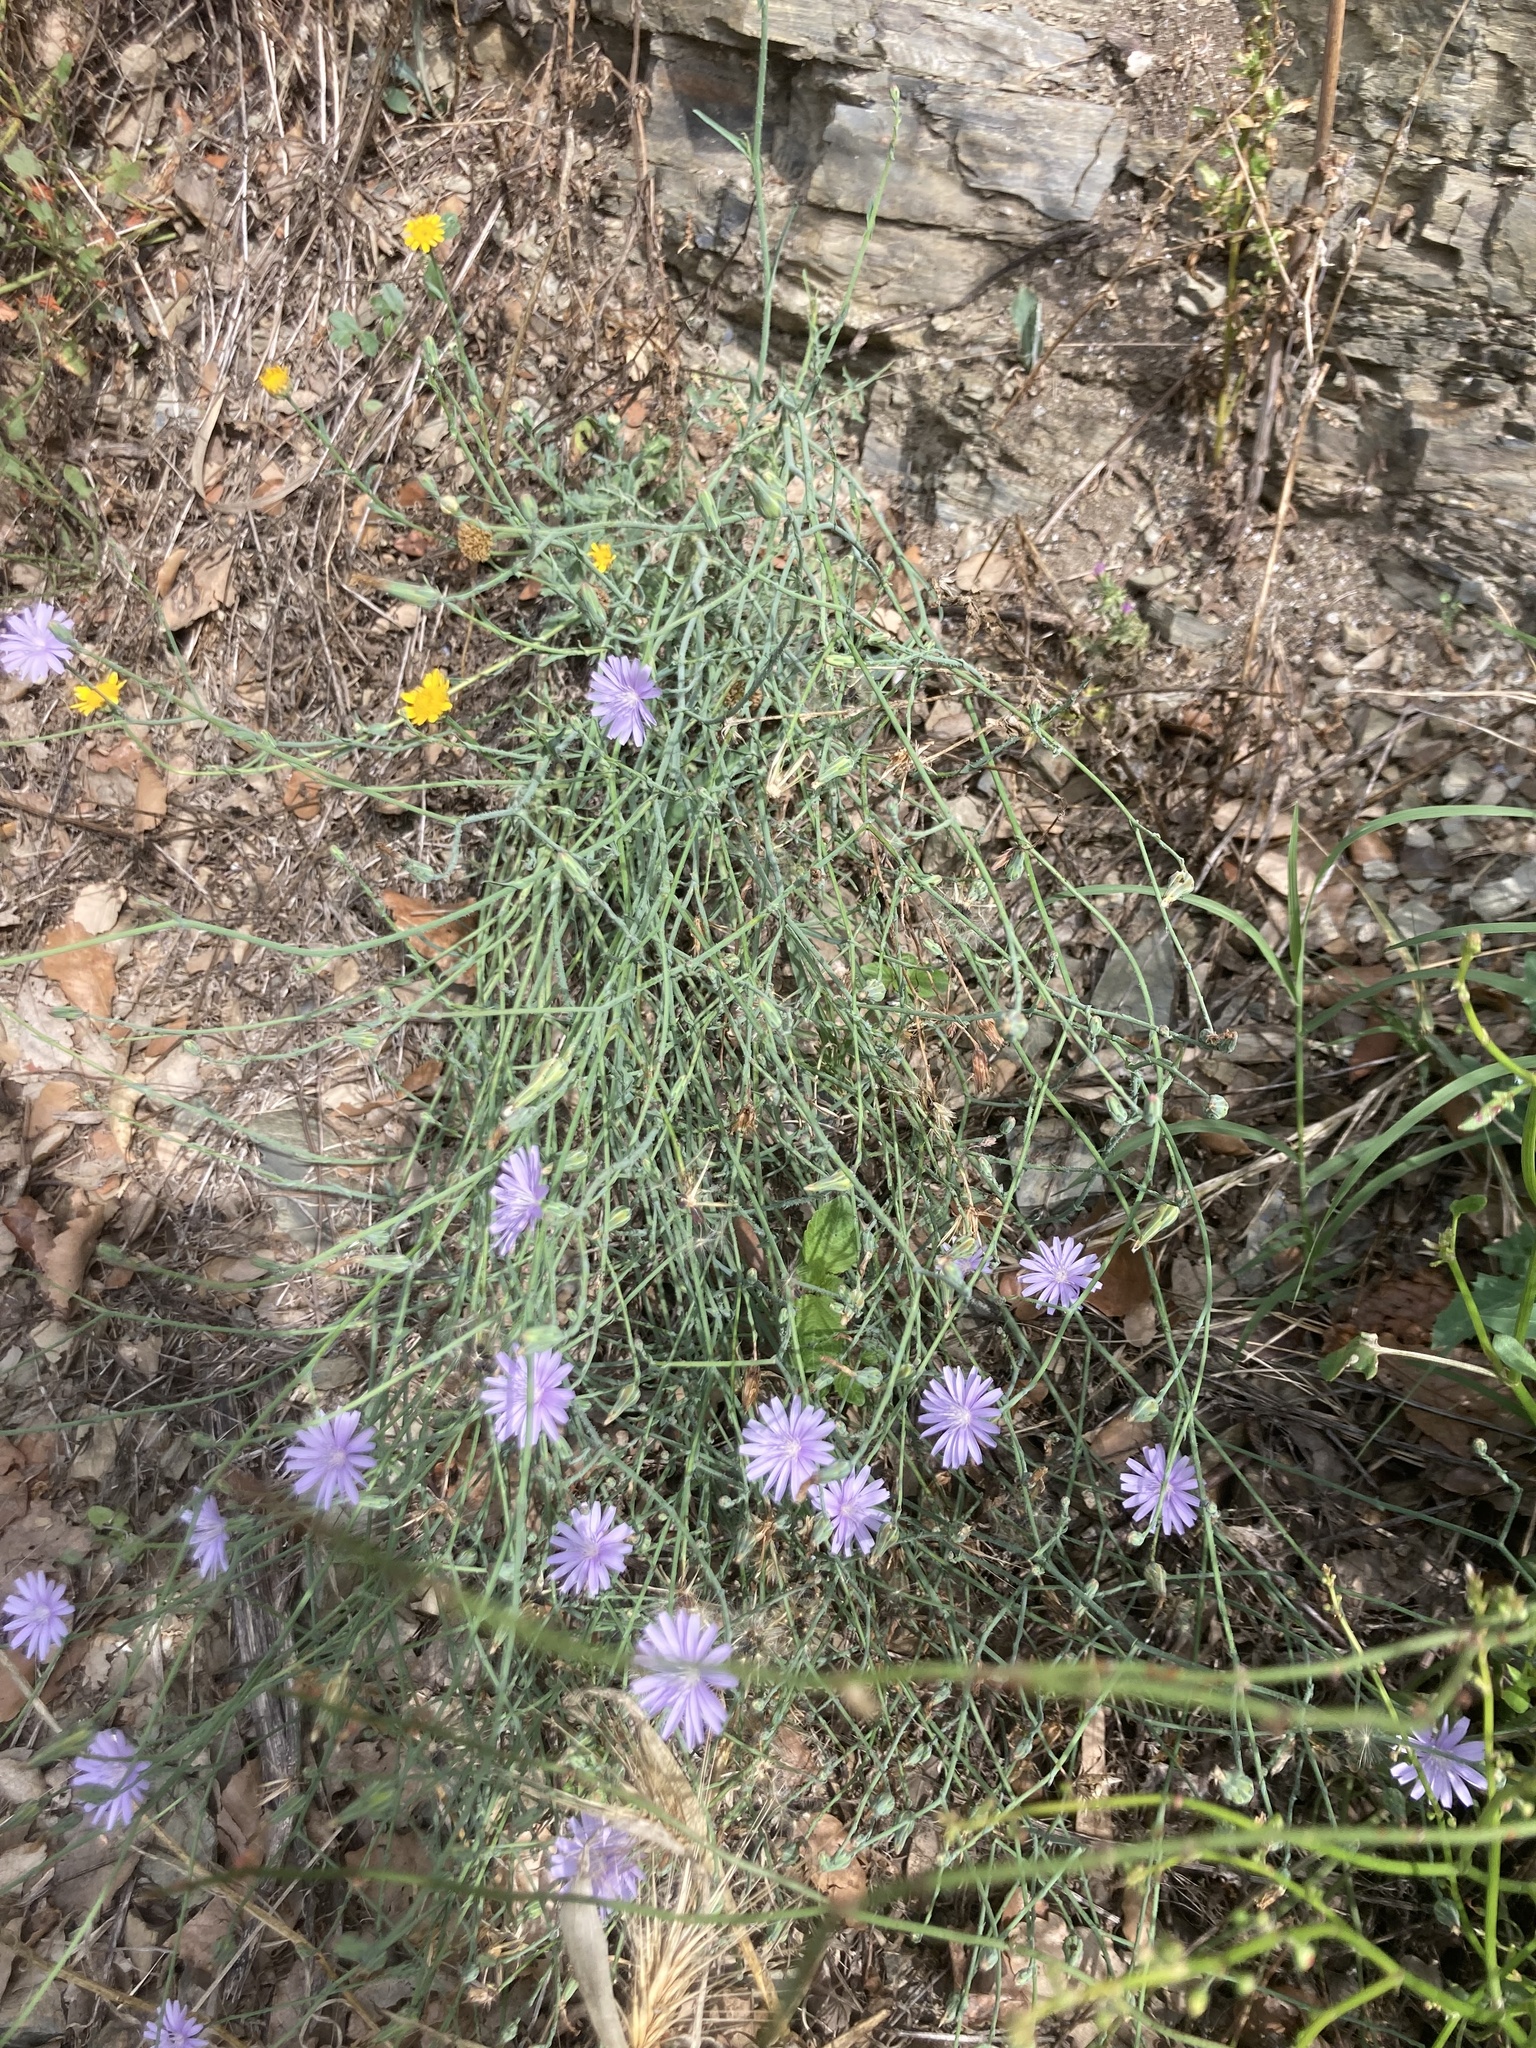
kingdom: Plantae
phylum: Tracheophyta
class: Magnoliopsida
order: Asterales
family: Asteraceae
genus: Cichorium
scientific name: Cichorium intybus
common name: Chicory
